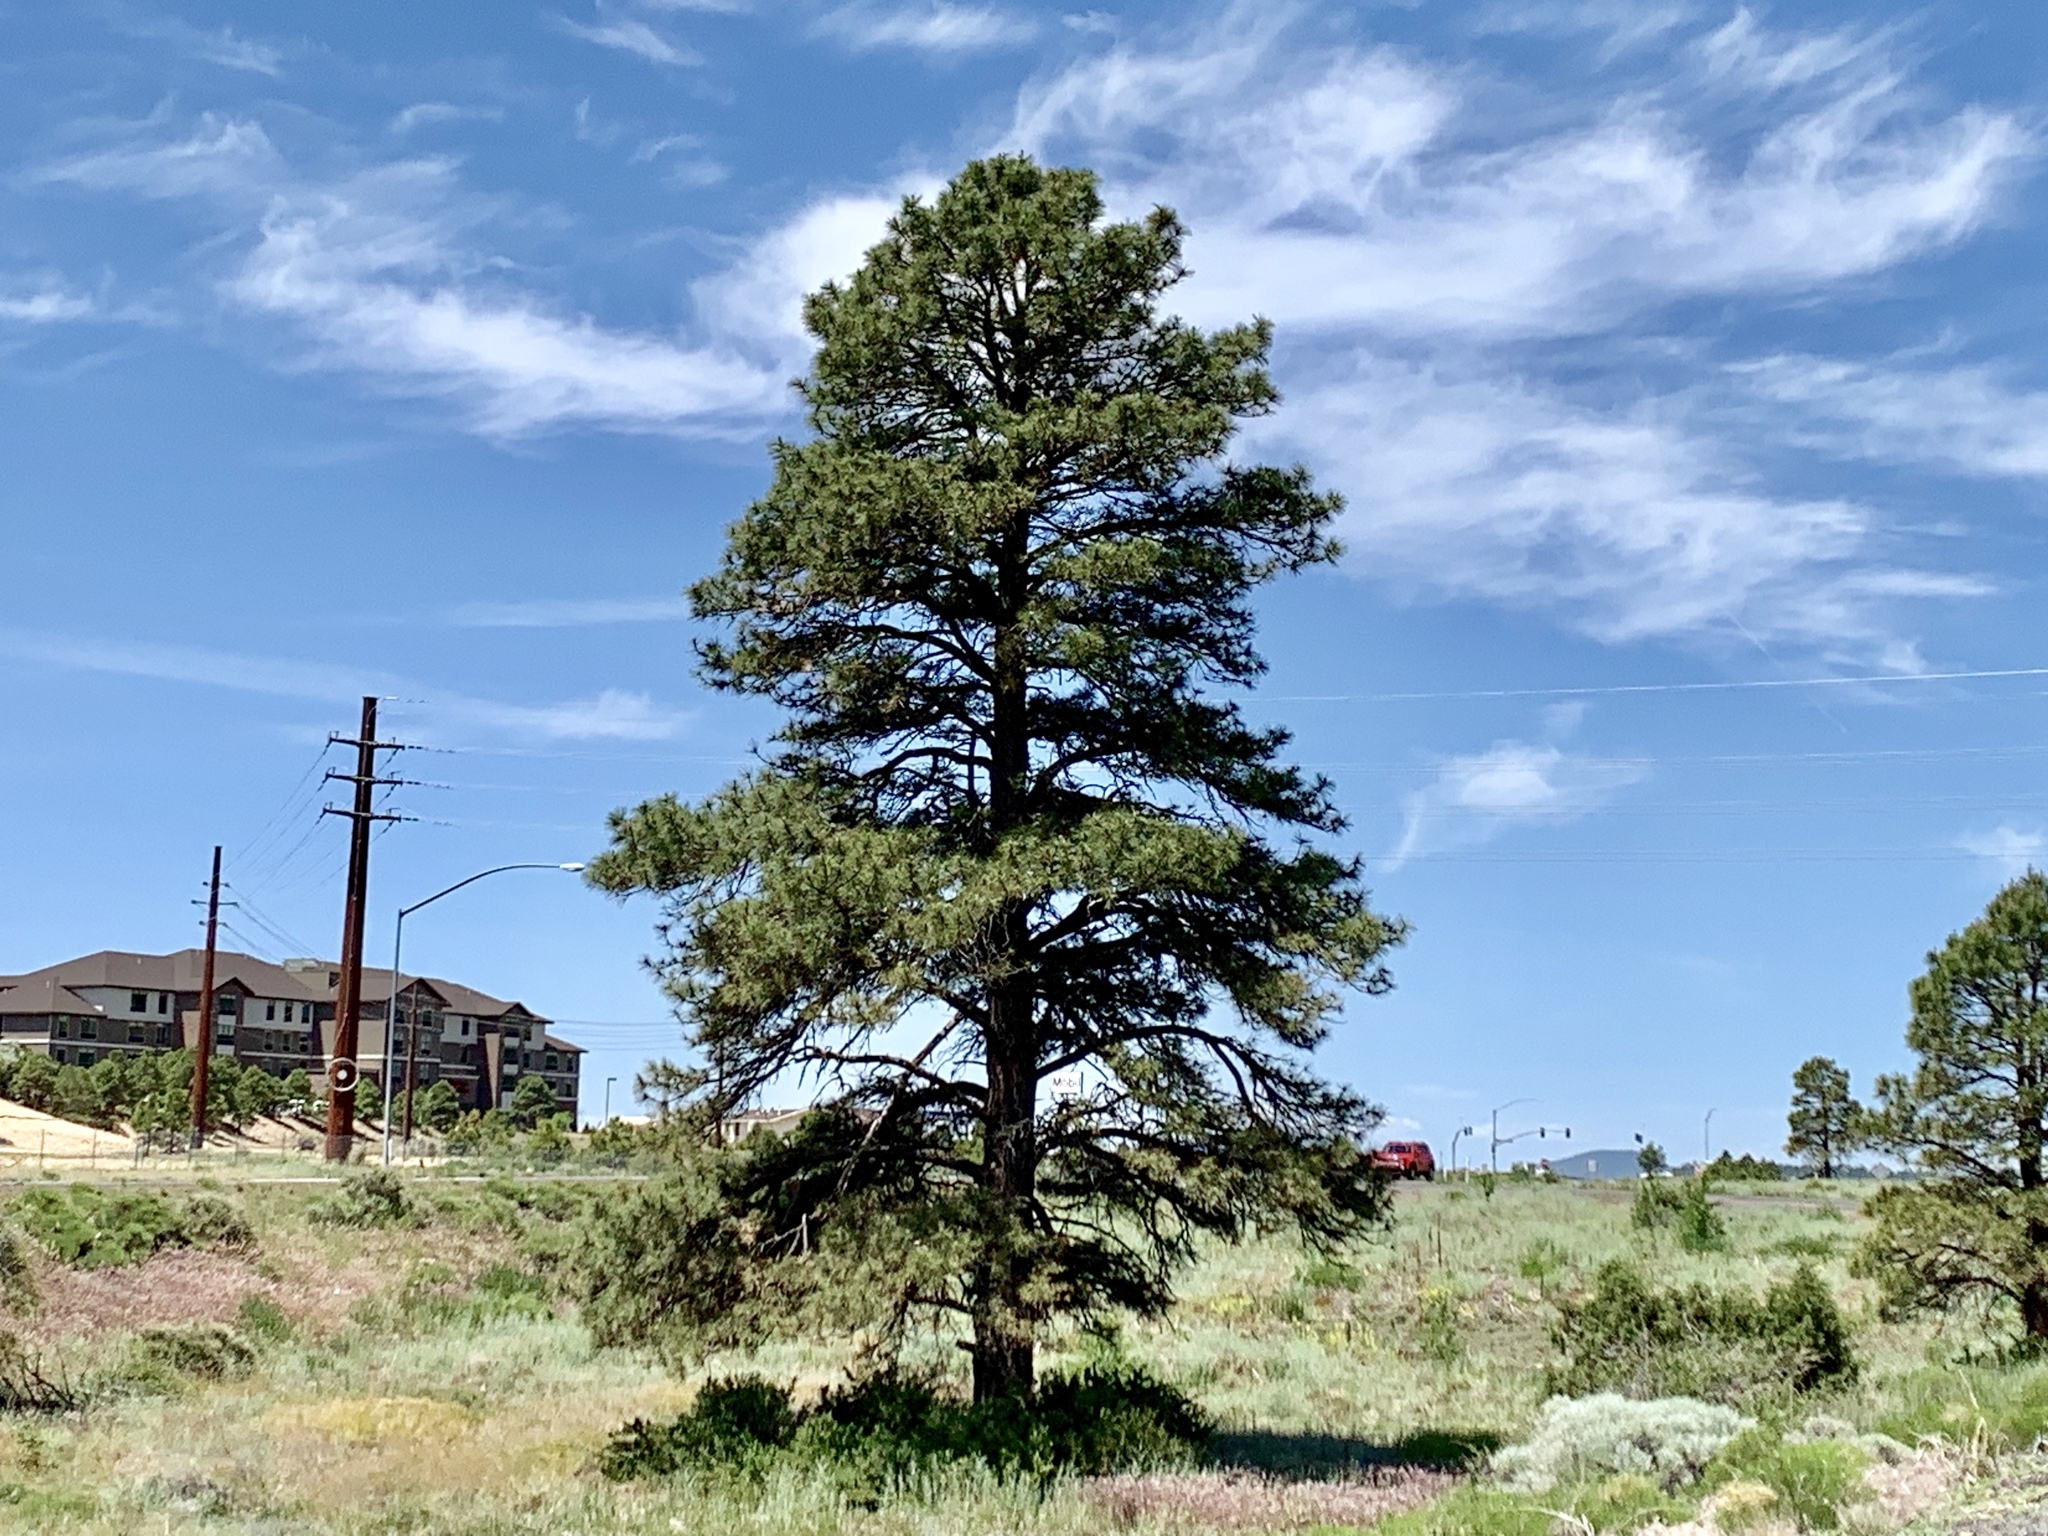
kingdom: Plantae
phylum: Tracheophyta
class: Pinopsida
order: Pinales
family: Pinaceae
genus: Pinus
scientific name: Pinus ponderosa
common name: Western yellow-pine
